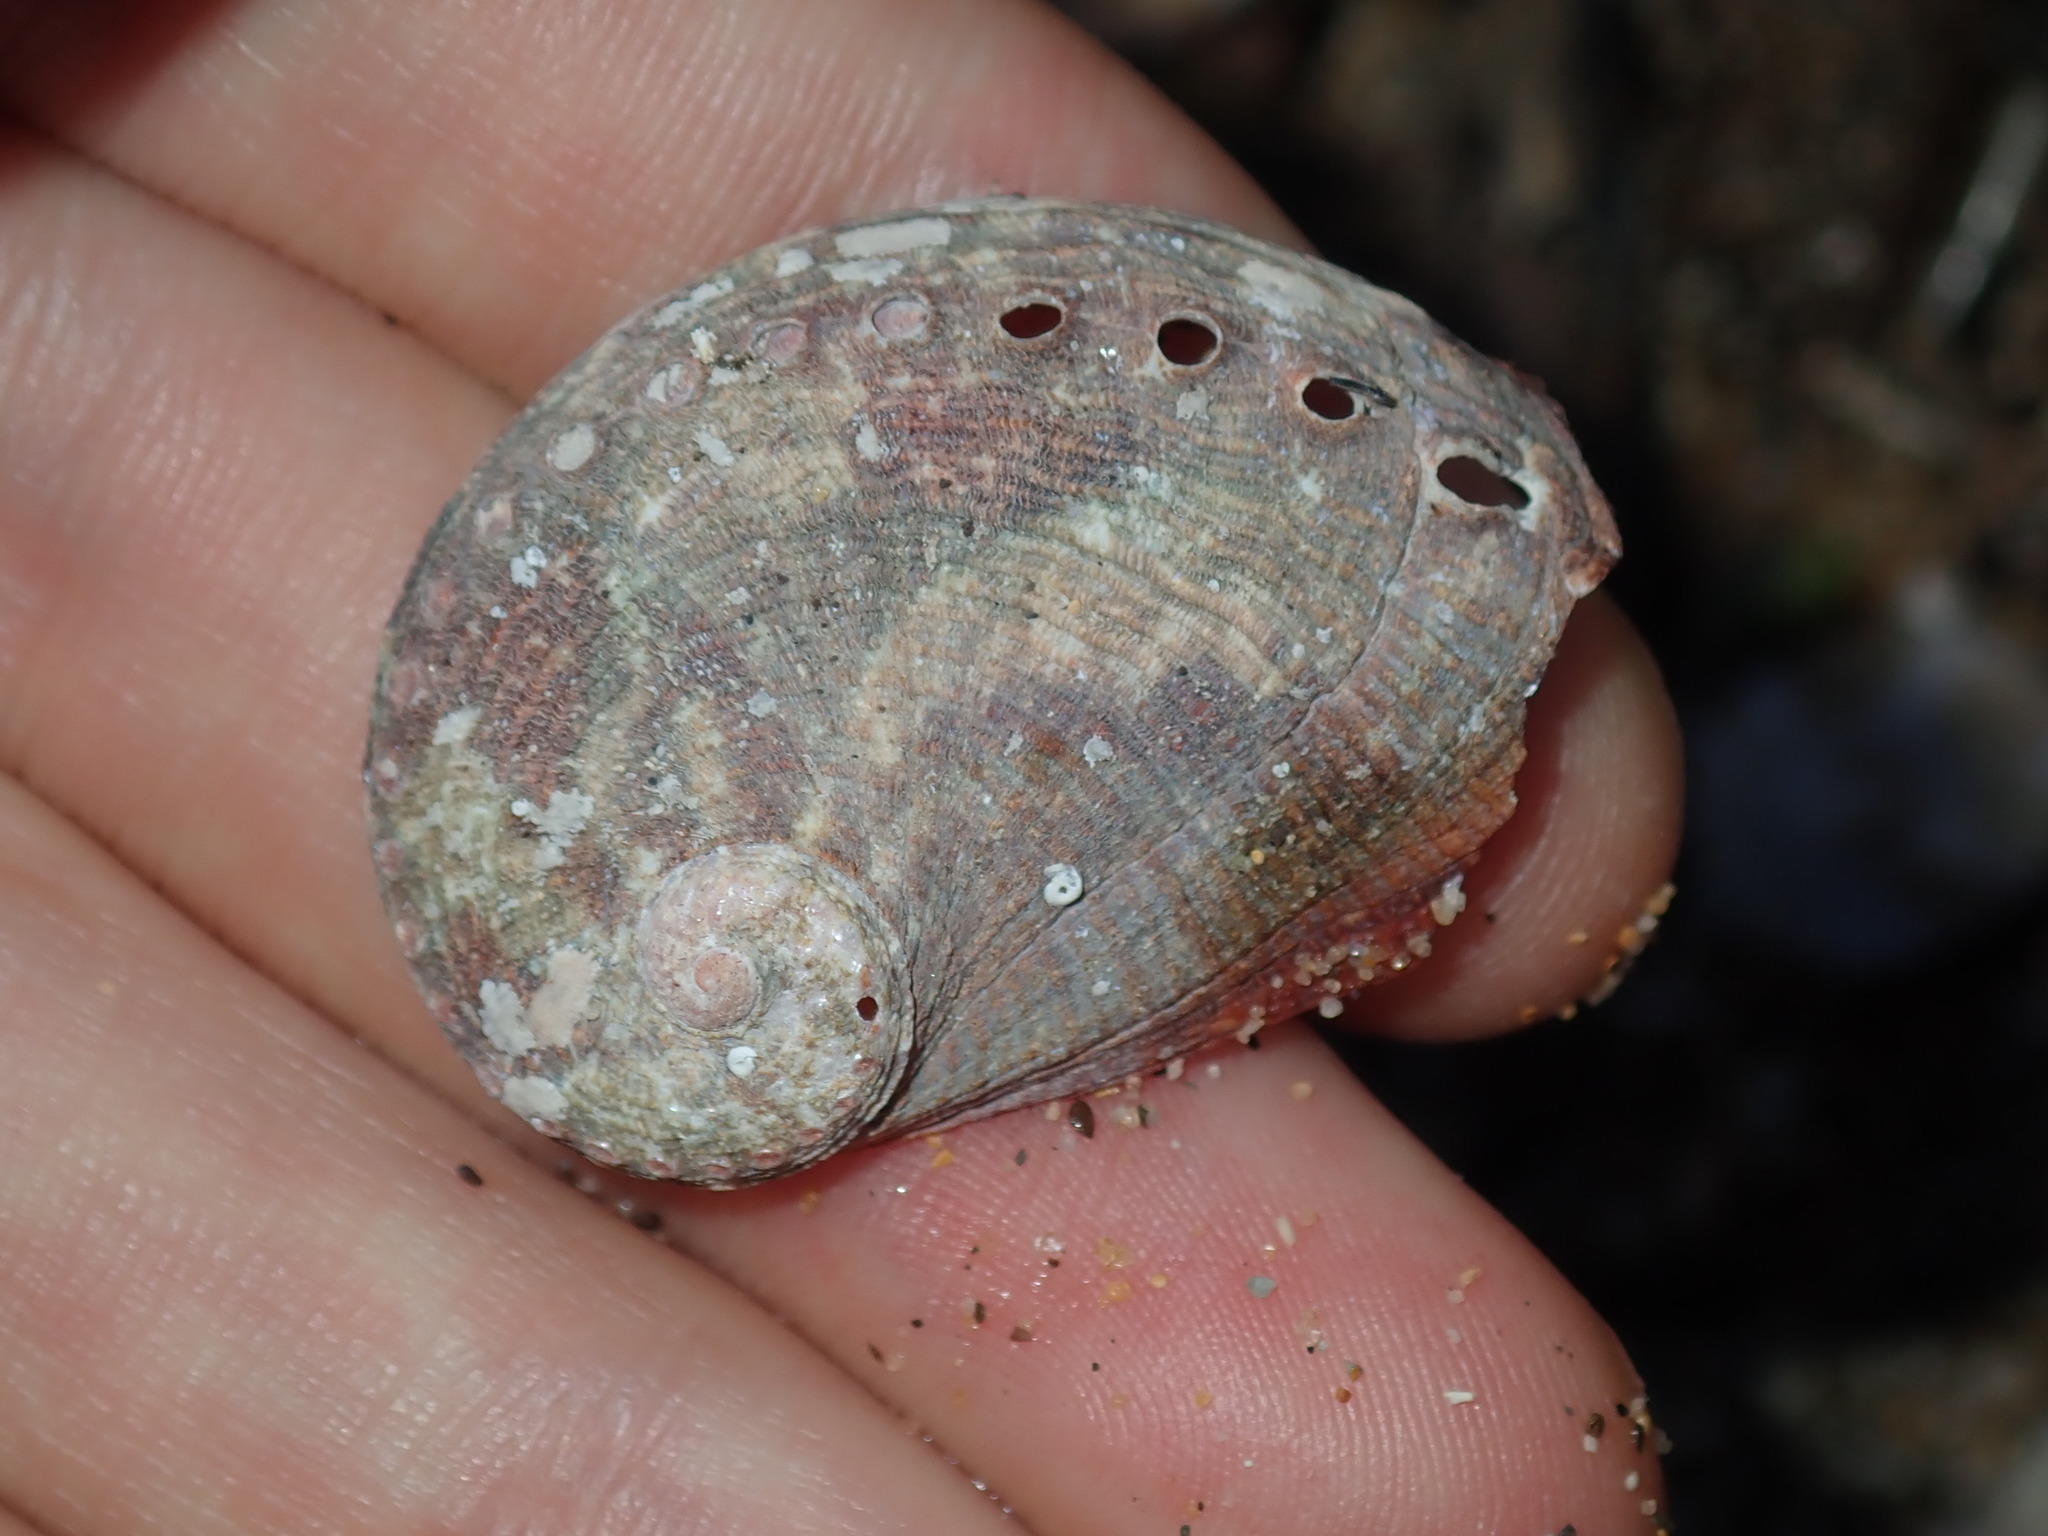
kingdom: Animalia
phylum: Mollusca
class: Gastropoda
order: Lepetellida
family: Haliotidae
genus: Haliotis
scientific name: Haliotis coccoradiata
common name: Reddish-rayed abalone
